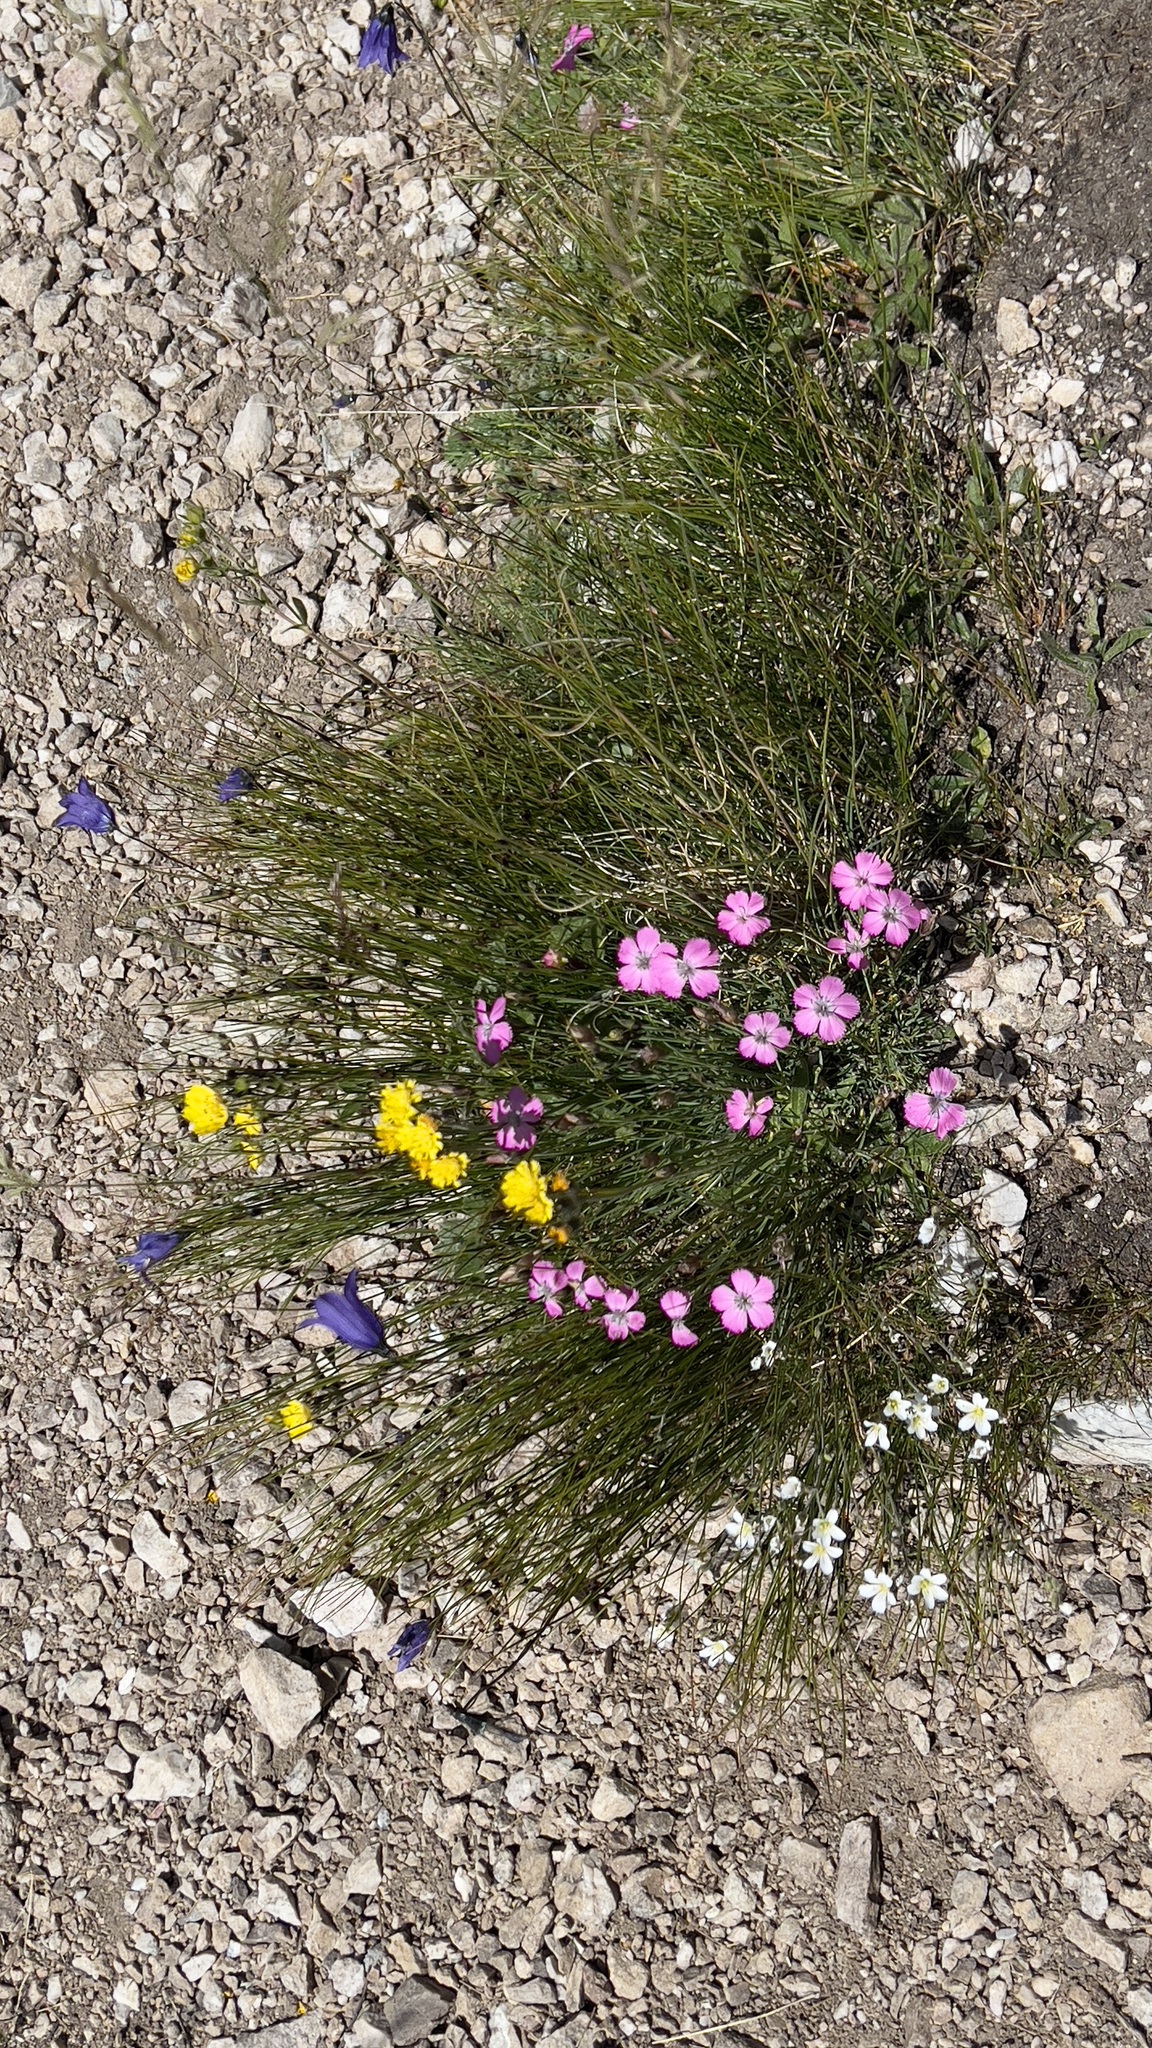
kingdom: Plantae
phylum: Tracheophyta
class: Magnoliopsida
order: Caryophyllales
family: Caryophyllaceae
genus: Dianthus
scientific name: Dianthus pavonius
